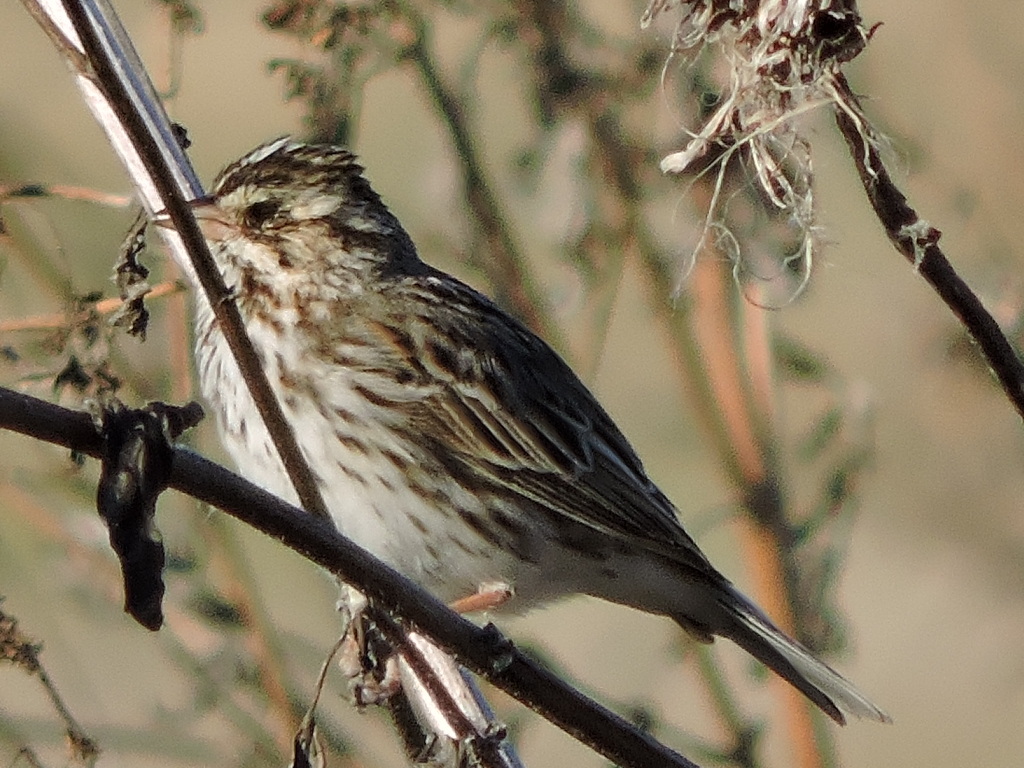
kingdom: Animalia
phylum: Chordata
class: Aves
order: Passeriformes
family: Passerellidae
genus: Melospiza
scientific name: Melospiza melodia
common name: Song sparrow
